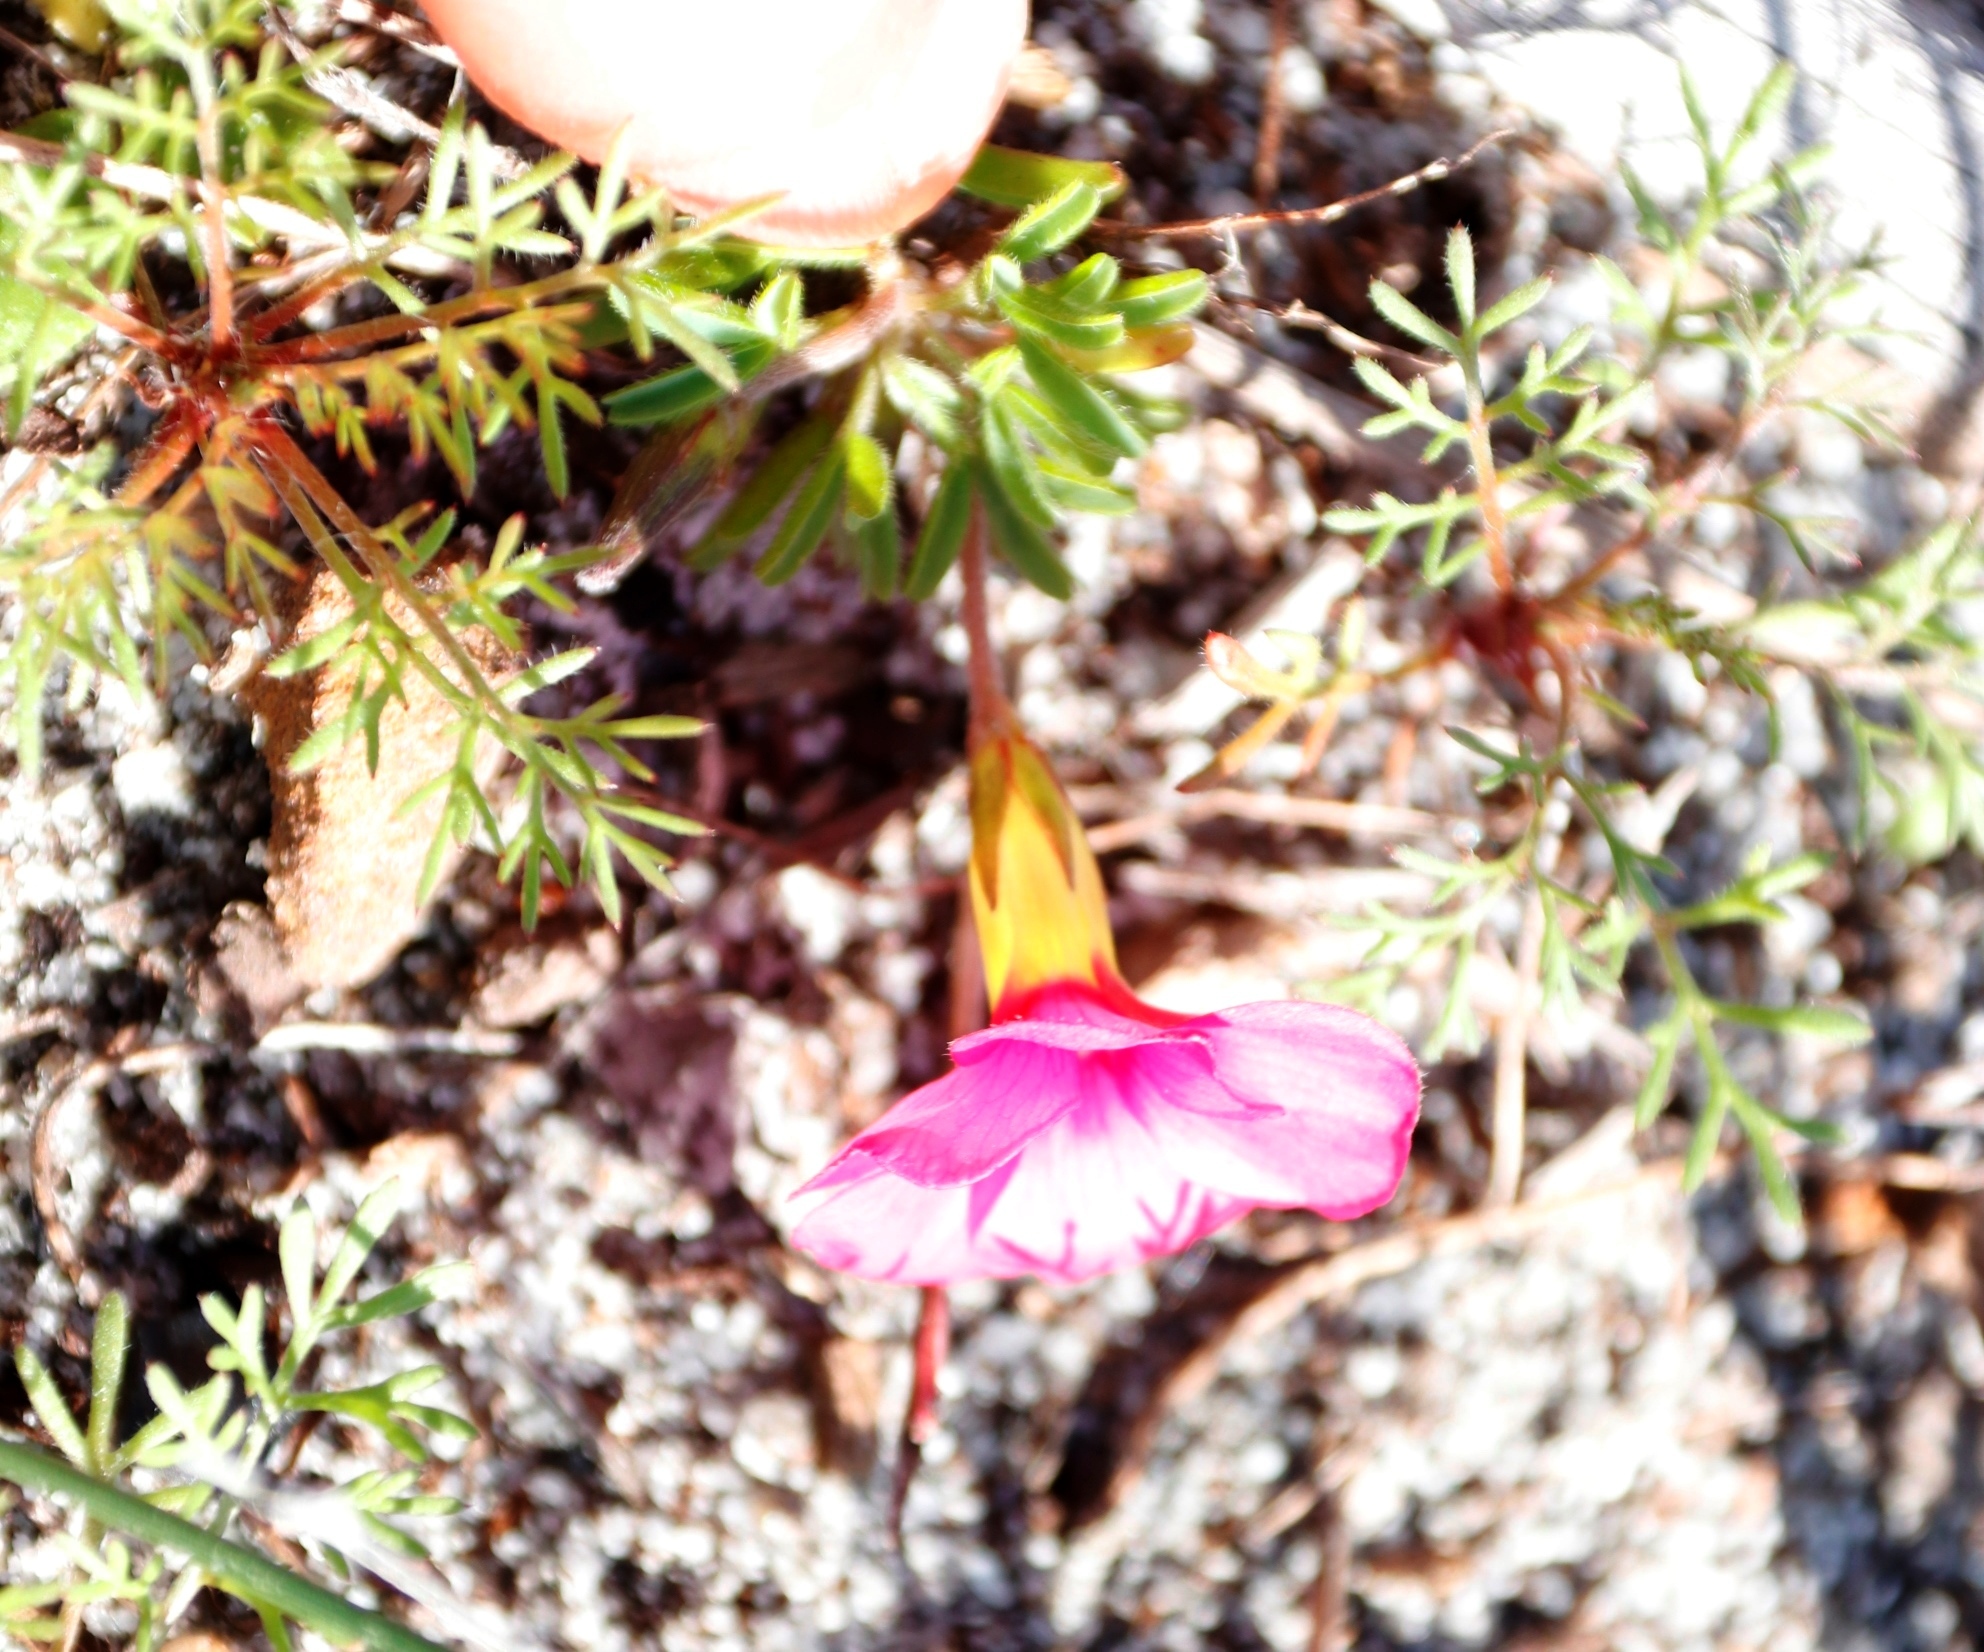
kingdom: Plantae
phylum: Tracheophyta
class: Magnoliopsida
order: Oxalidales
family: Oxalidaceae
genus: Oxalis
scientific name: Oxalis glabra
